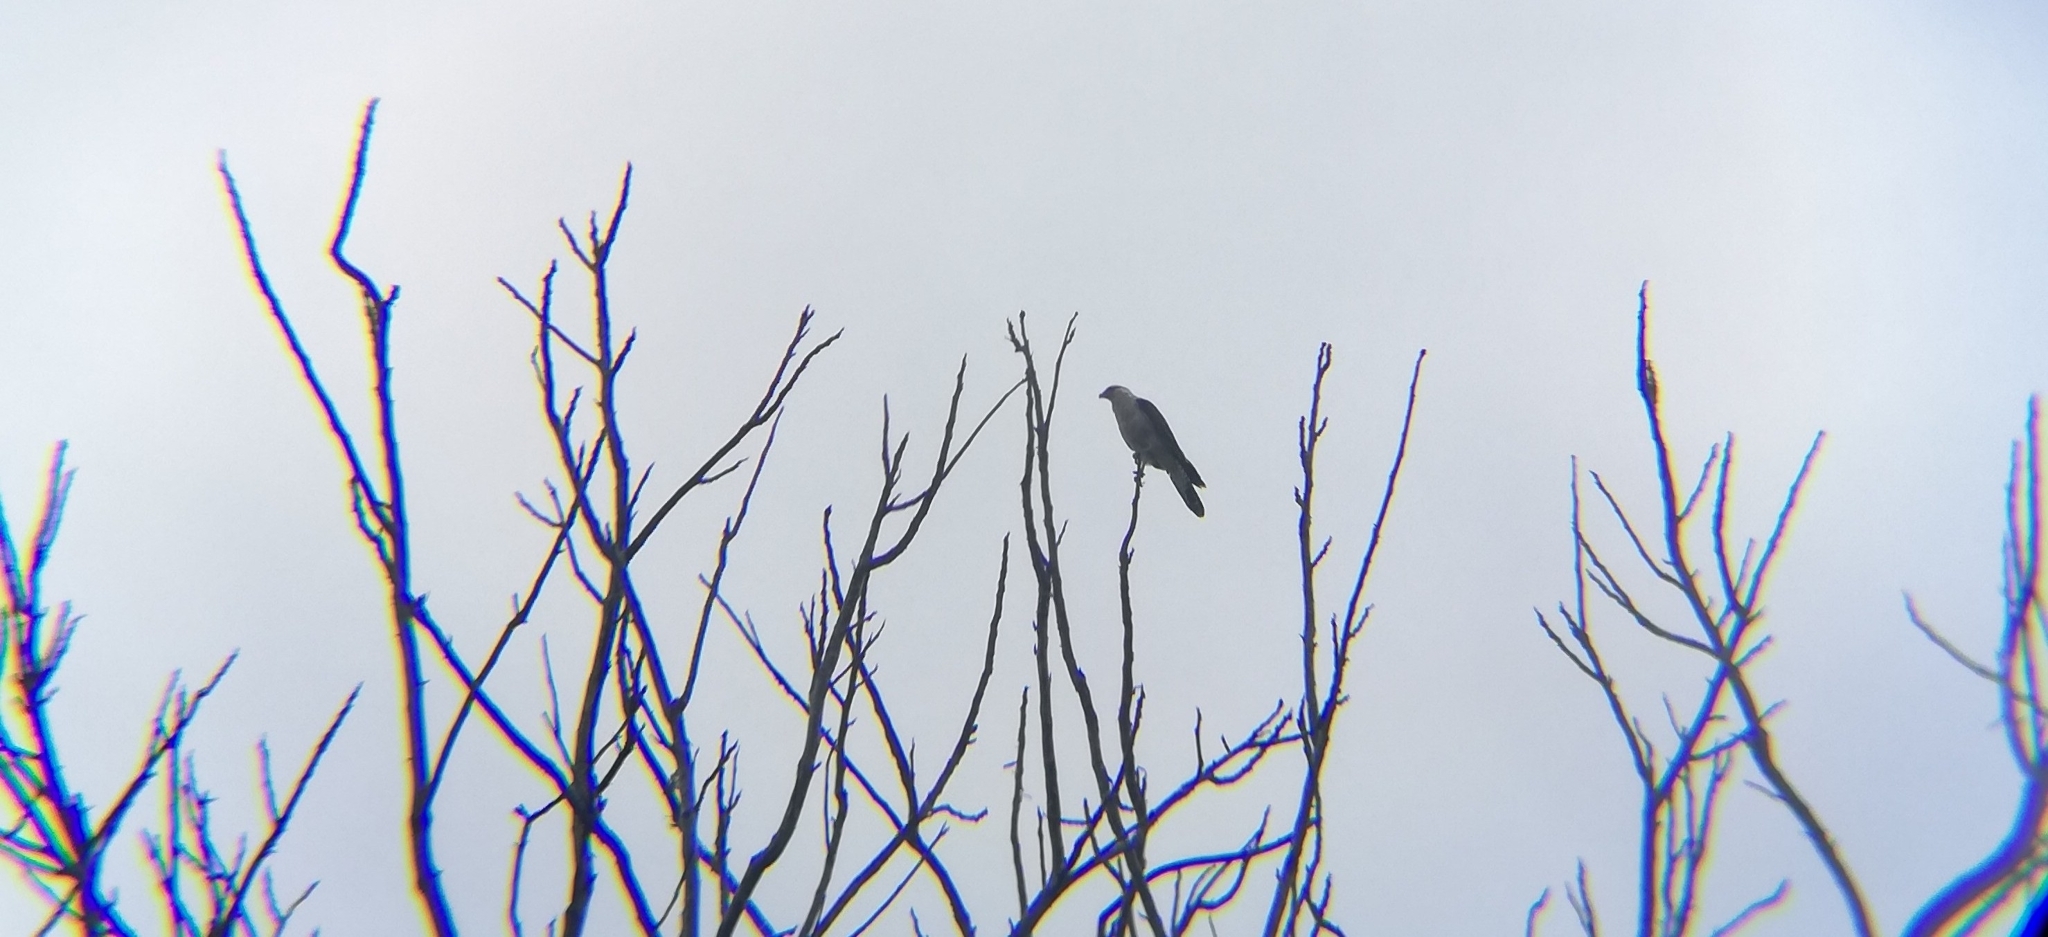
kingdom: Animalia
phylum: Chordata
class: Aves
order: Falconiformes
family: Falconidae
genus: Daptrius
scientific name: Daptrius
